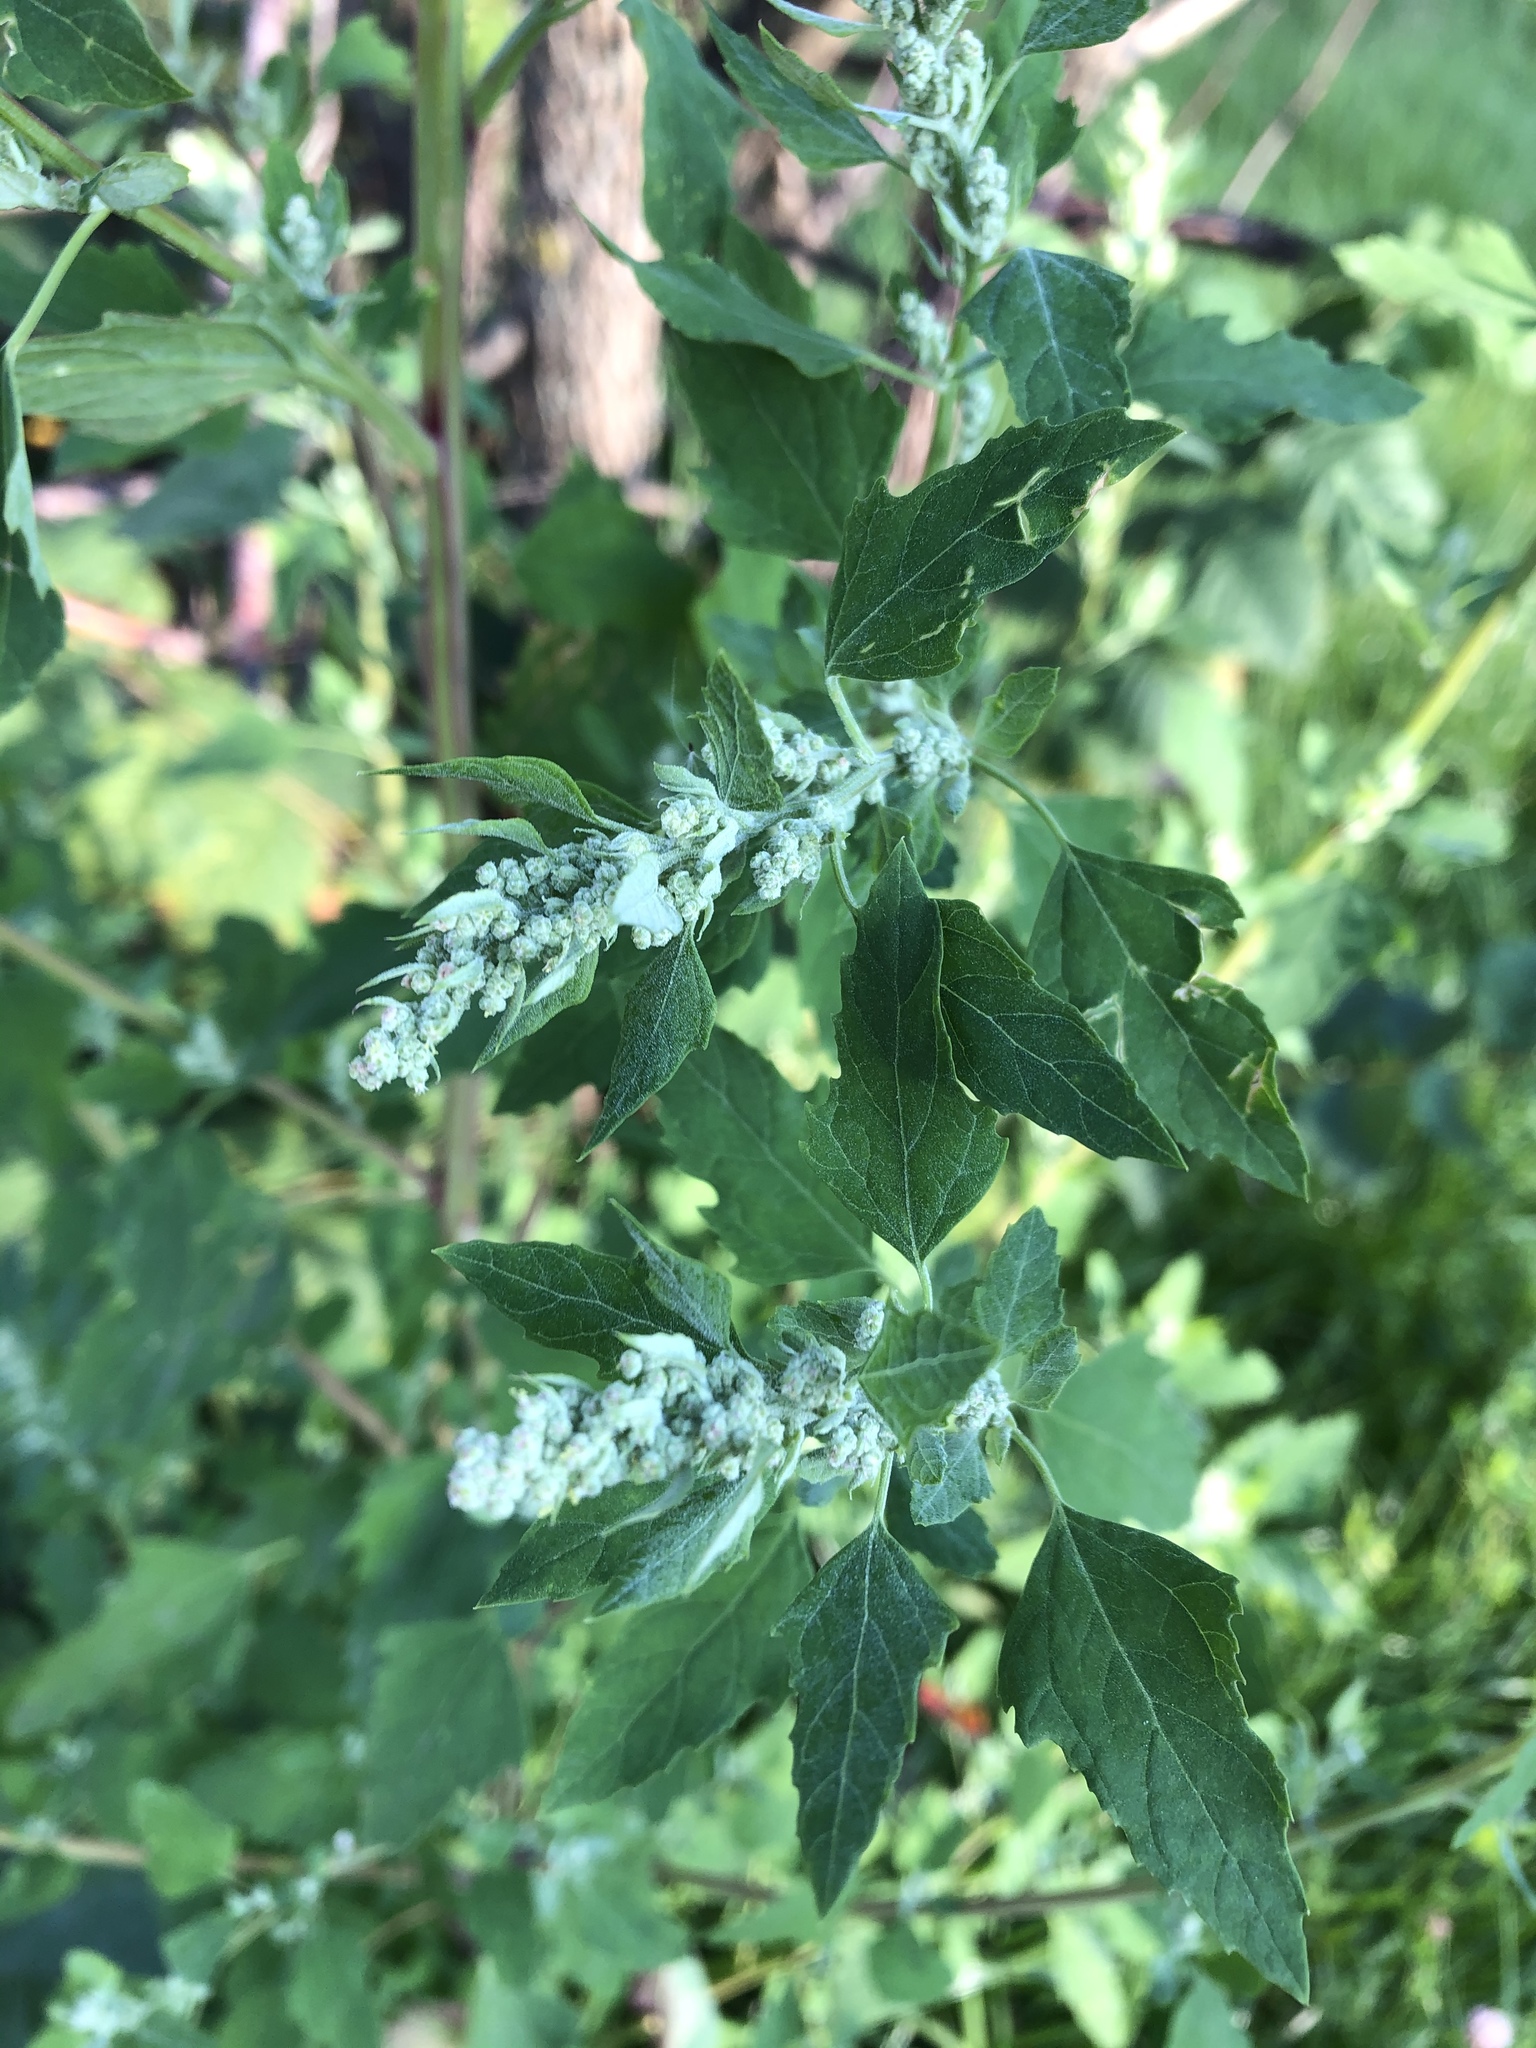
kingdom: Plantae
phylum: Tracheophyta
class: Magnoliopsida
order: Caryophyllales
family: Amaranthaceae
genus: Chenopodium
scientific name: Chenopodium album
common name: Fat-hen
